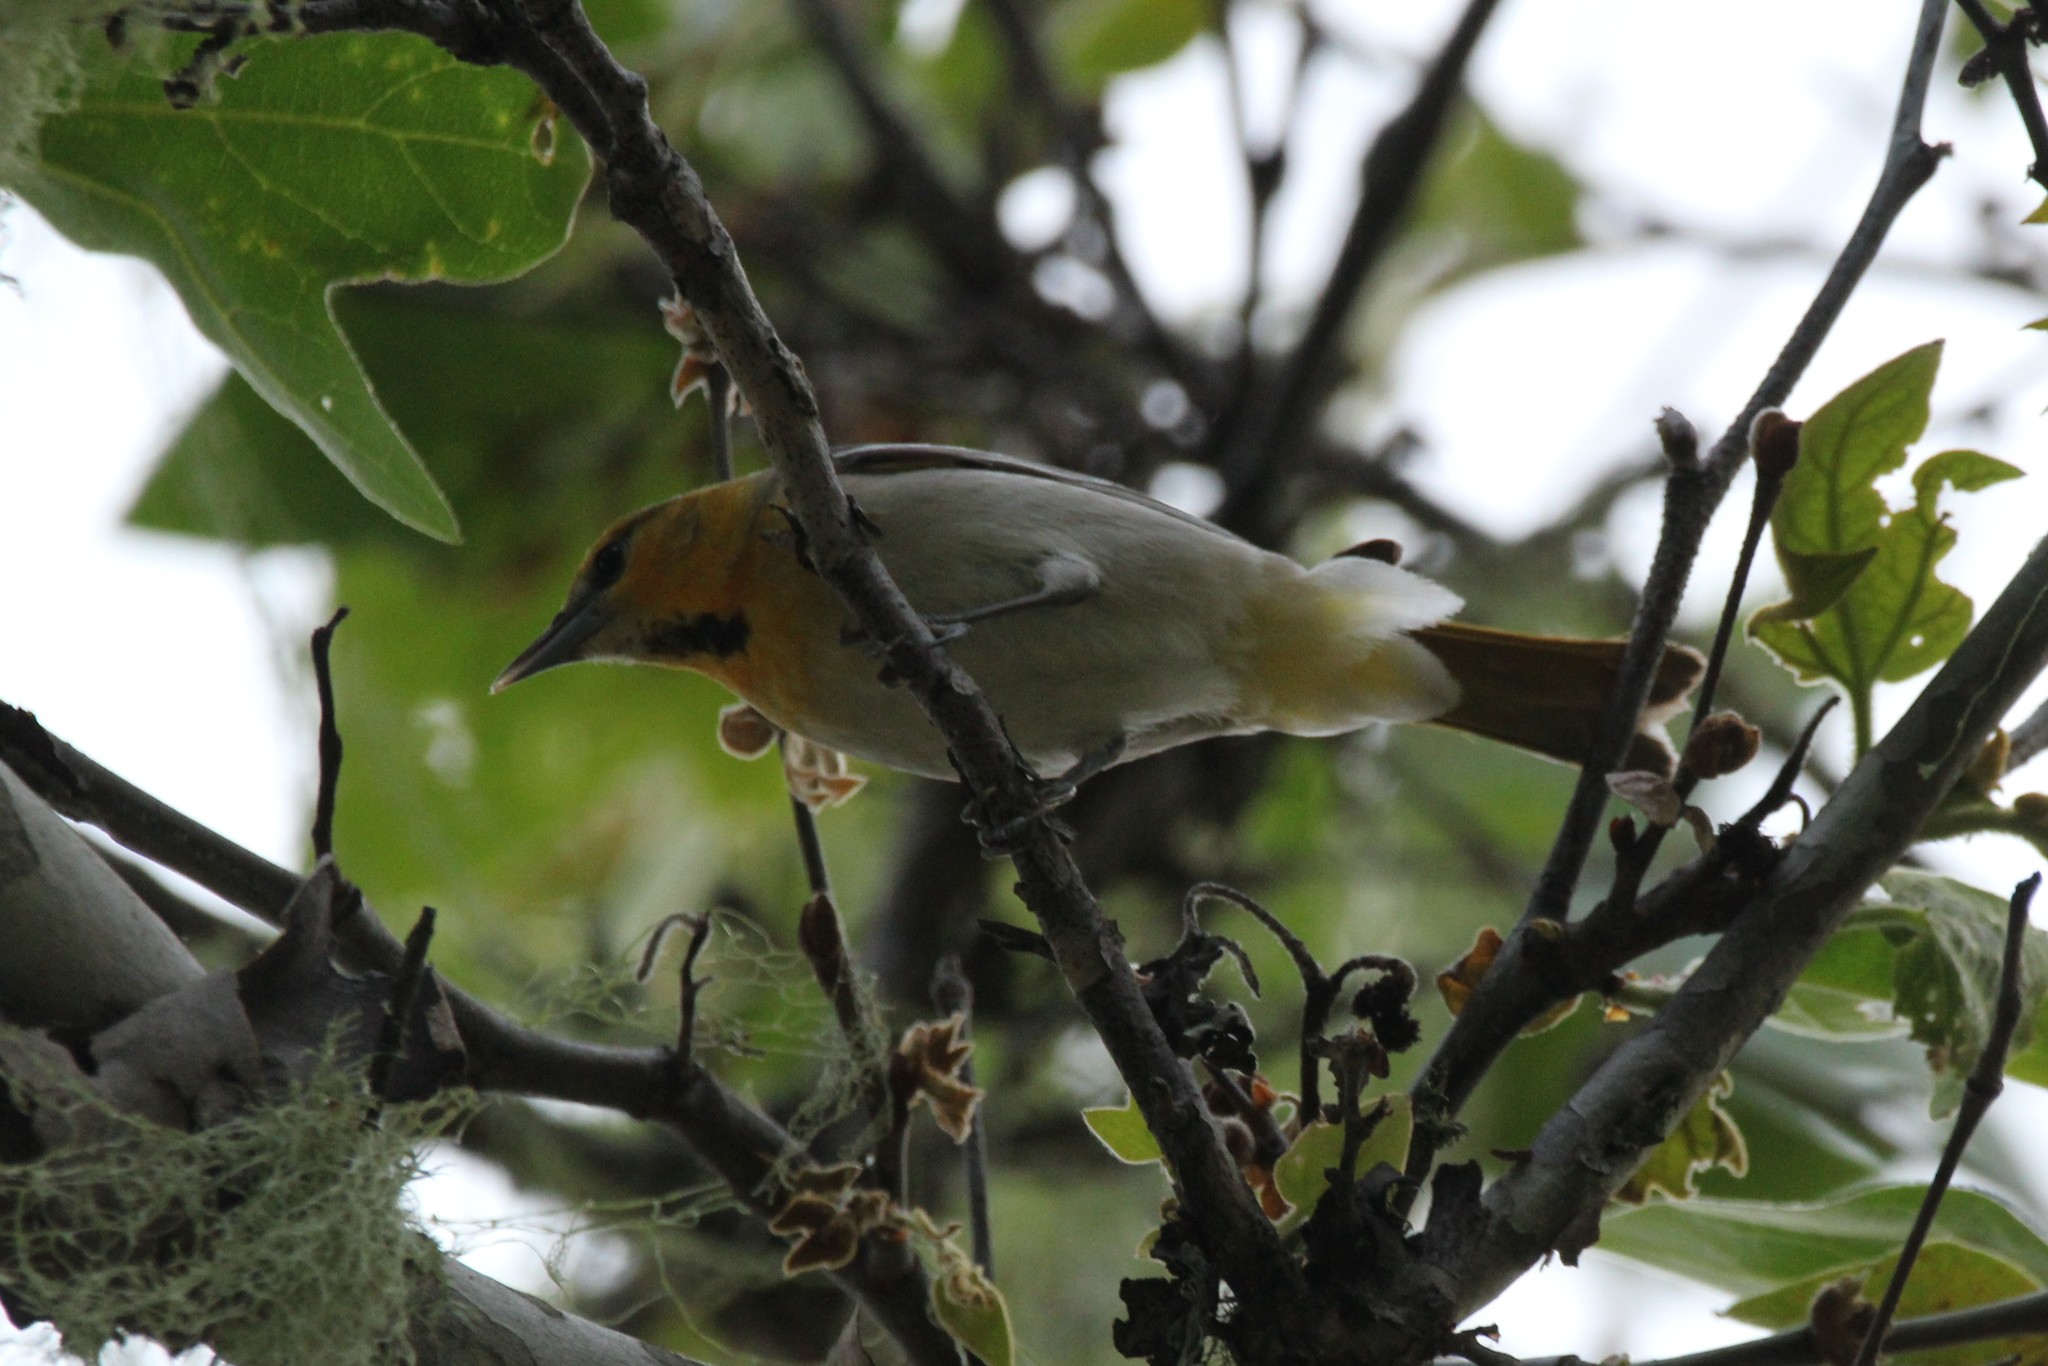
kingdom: Animalia
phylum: Chordata
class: Aves
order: Passeriformes
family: Icteridae
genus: Icterus
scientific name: Icterus bullockii
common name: Bullock's oriole
